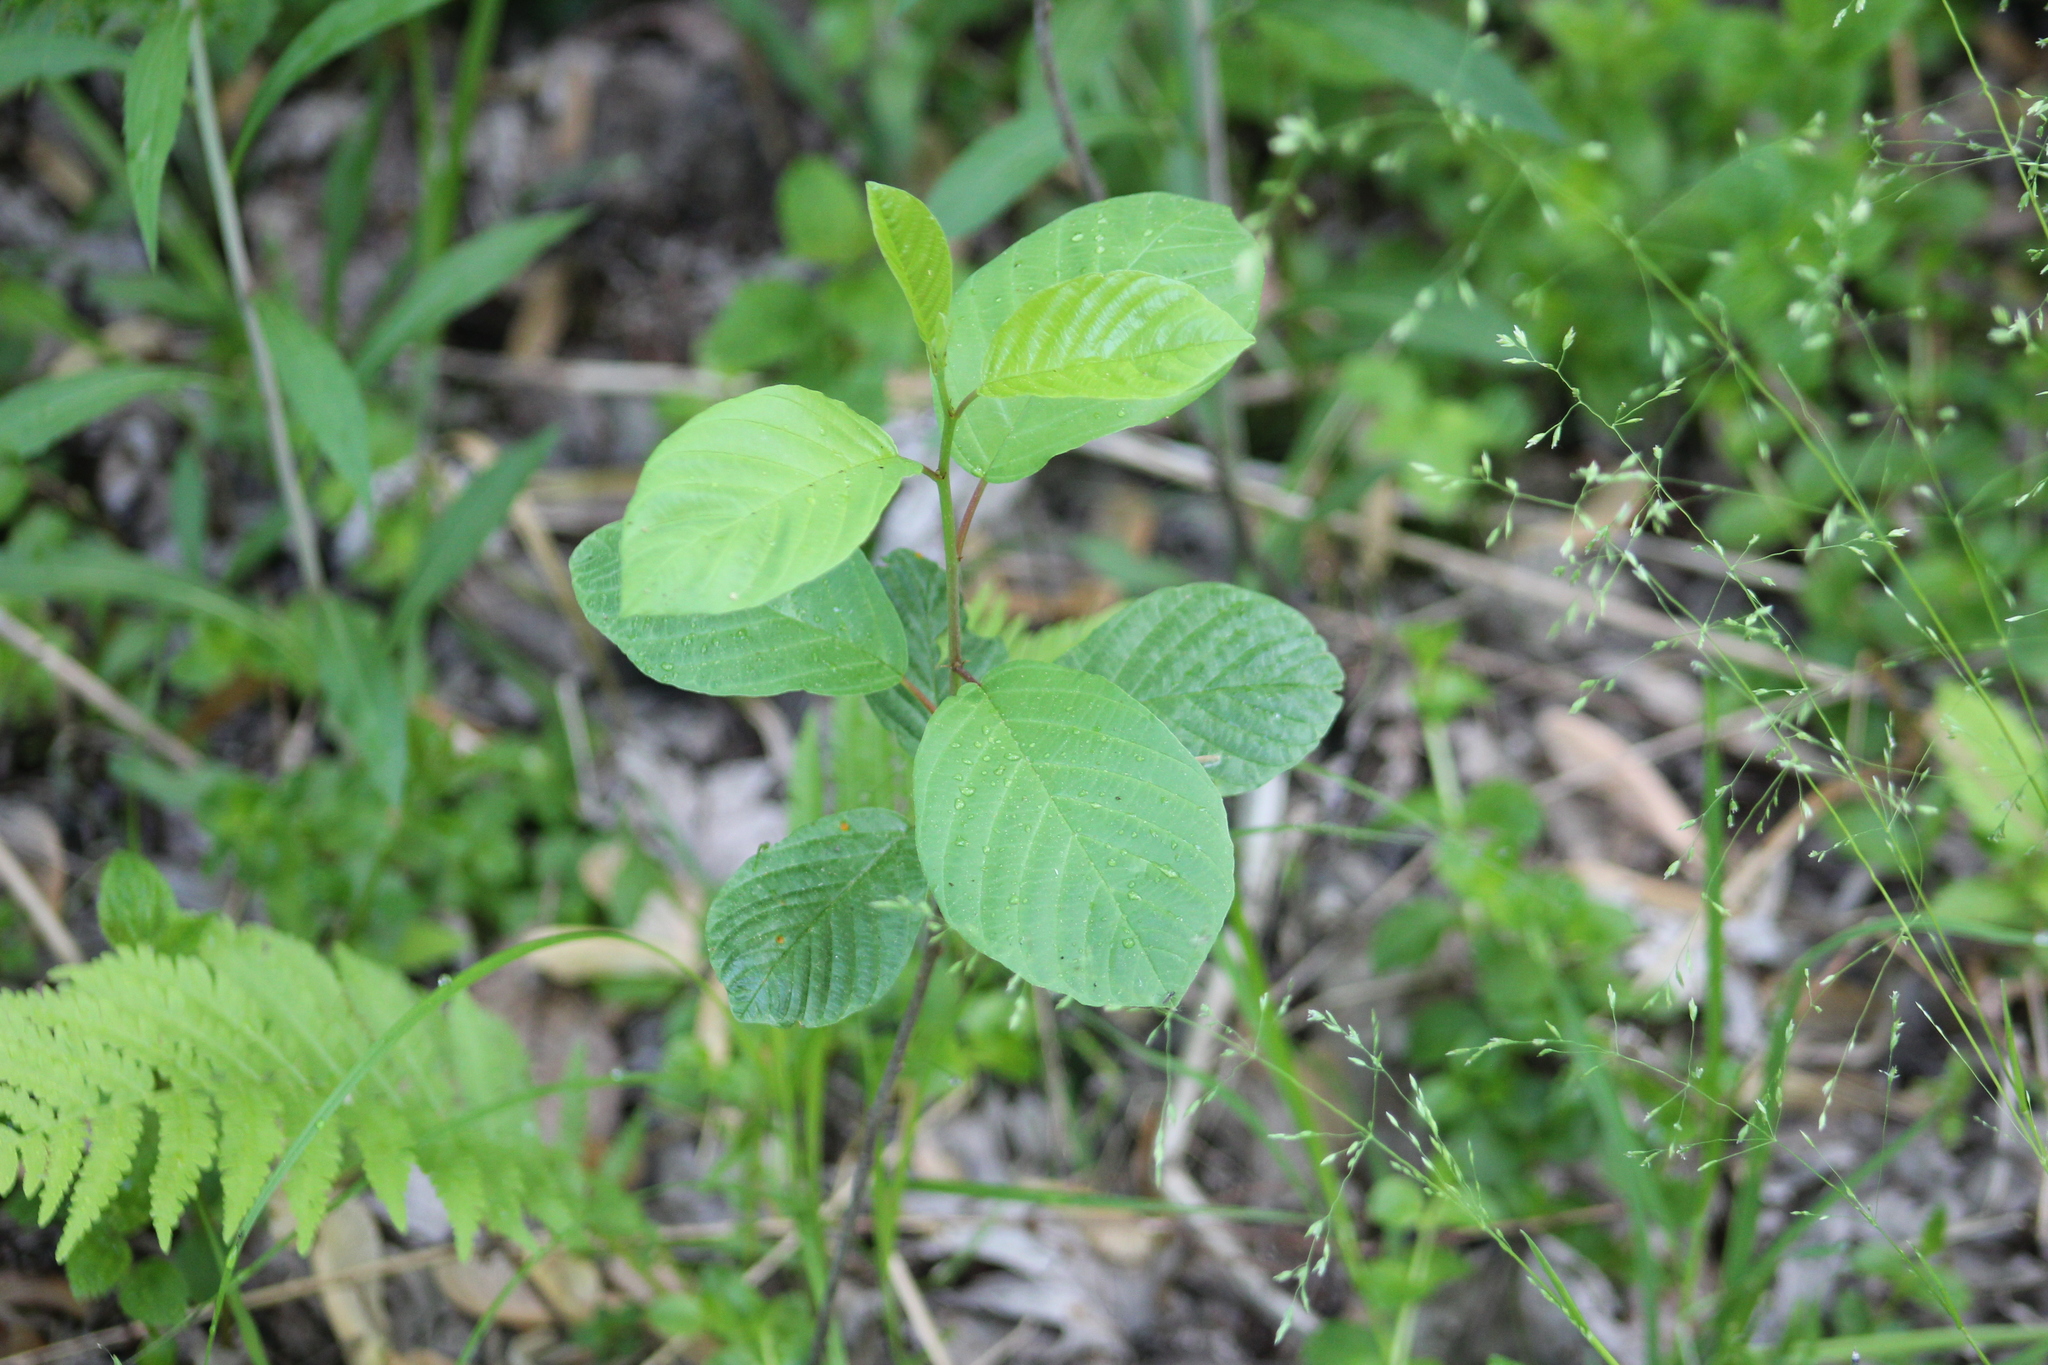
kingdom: Plantae
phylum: Tracheophyta
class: Magnoliopsida
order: Rosales
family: Rhamnaceae
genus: Frangula
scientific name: Frangula alnus
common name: Alder buckthorn
